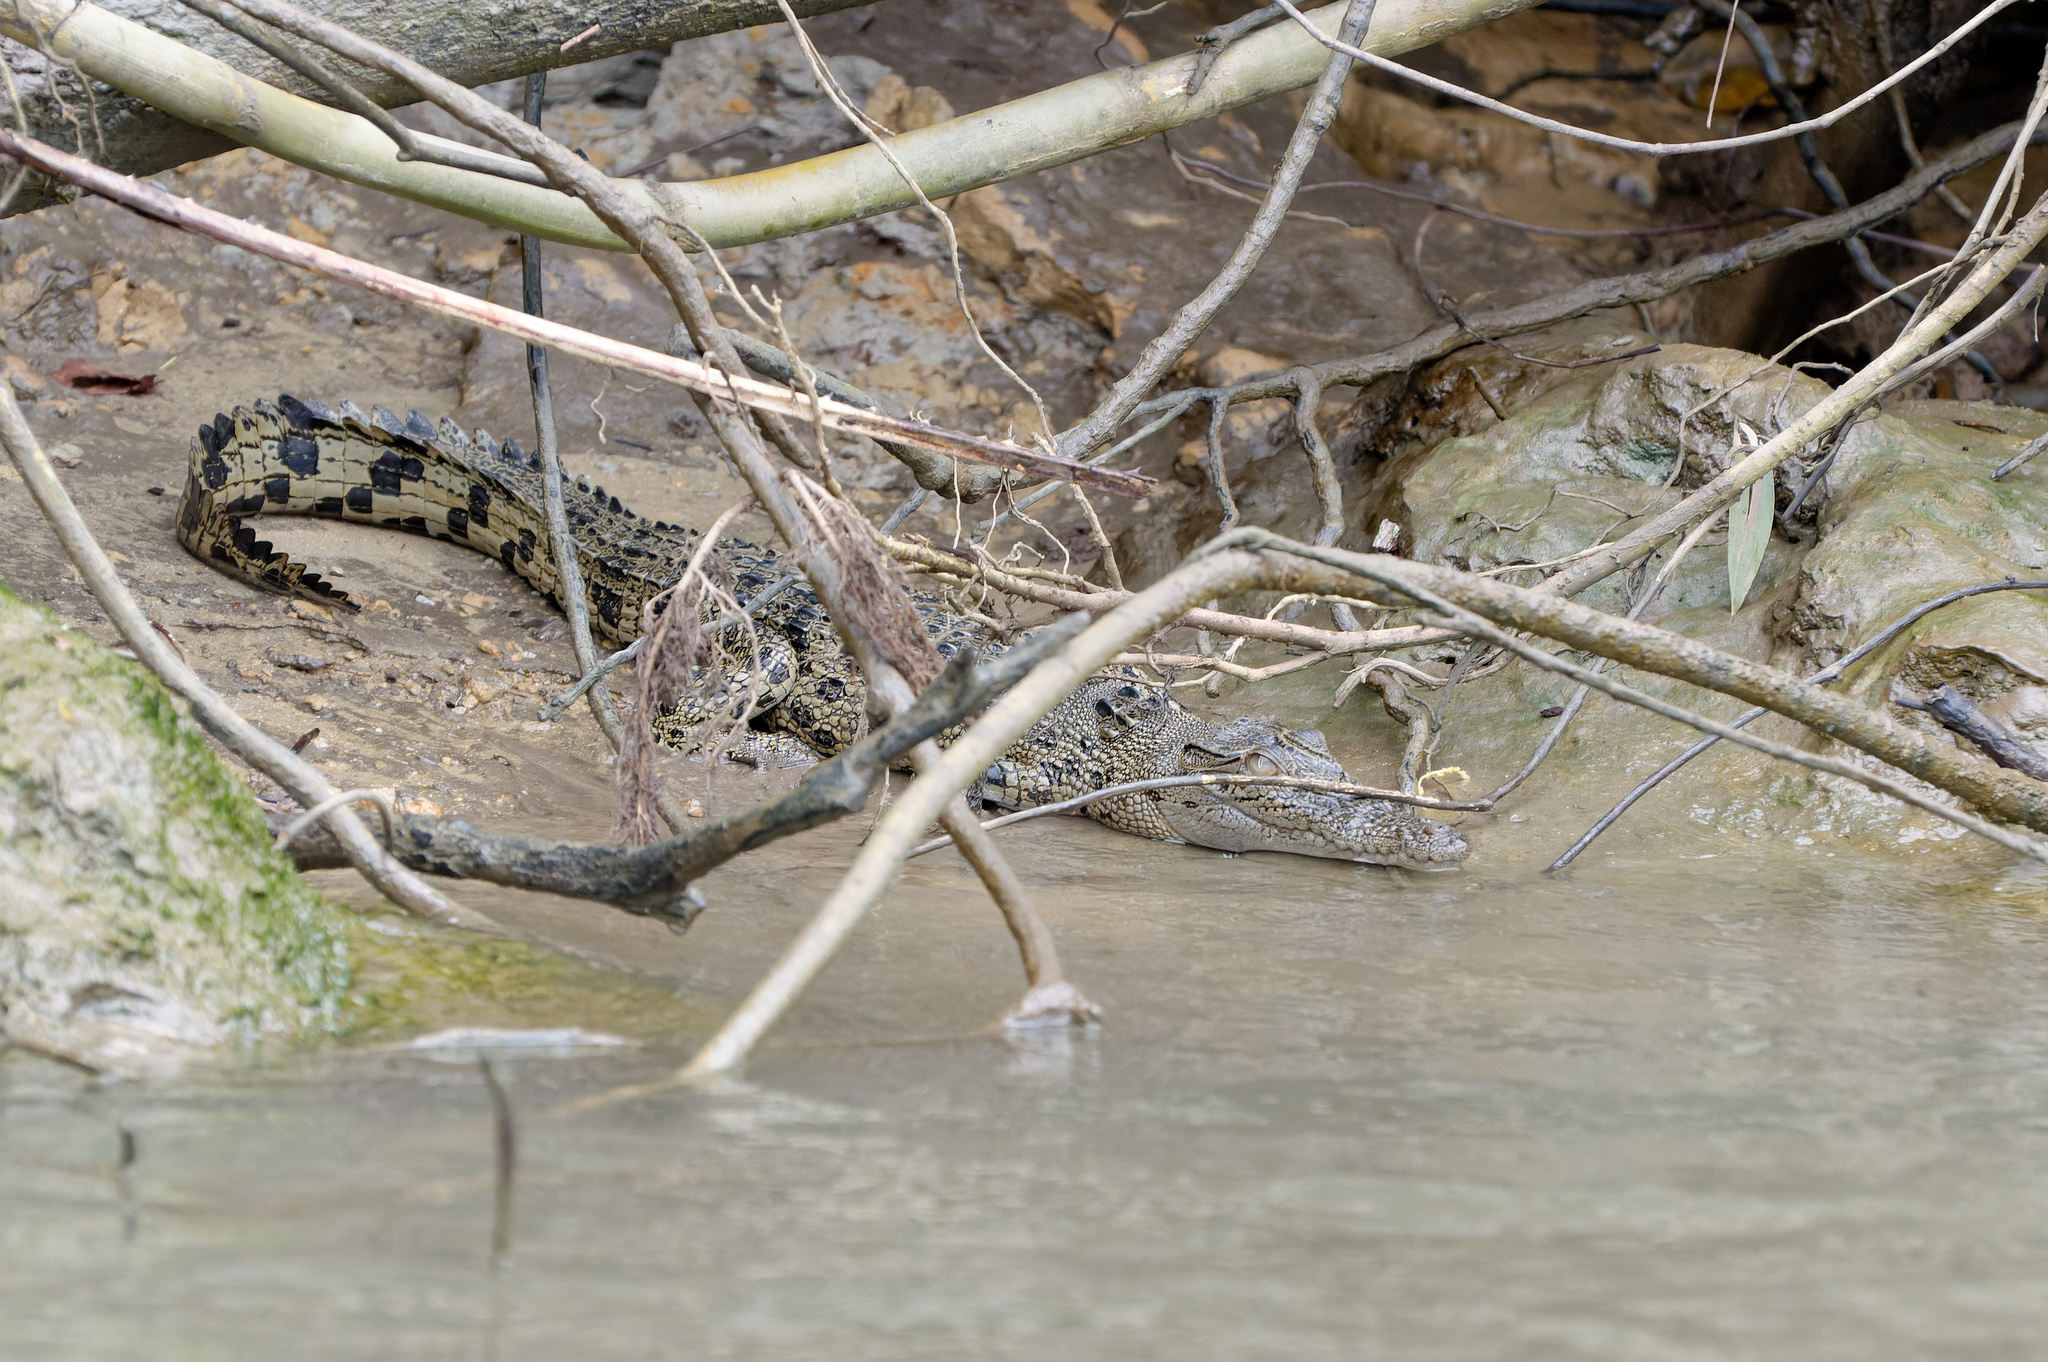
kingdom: Animalia
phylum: Chordata
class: Crocodylia
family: Crocodylidae
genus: Crocodylus
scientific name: Crocodylus porosus
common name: Saltwater crocodile
